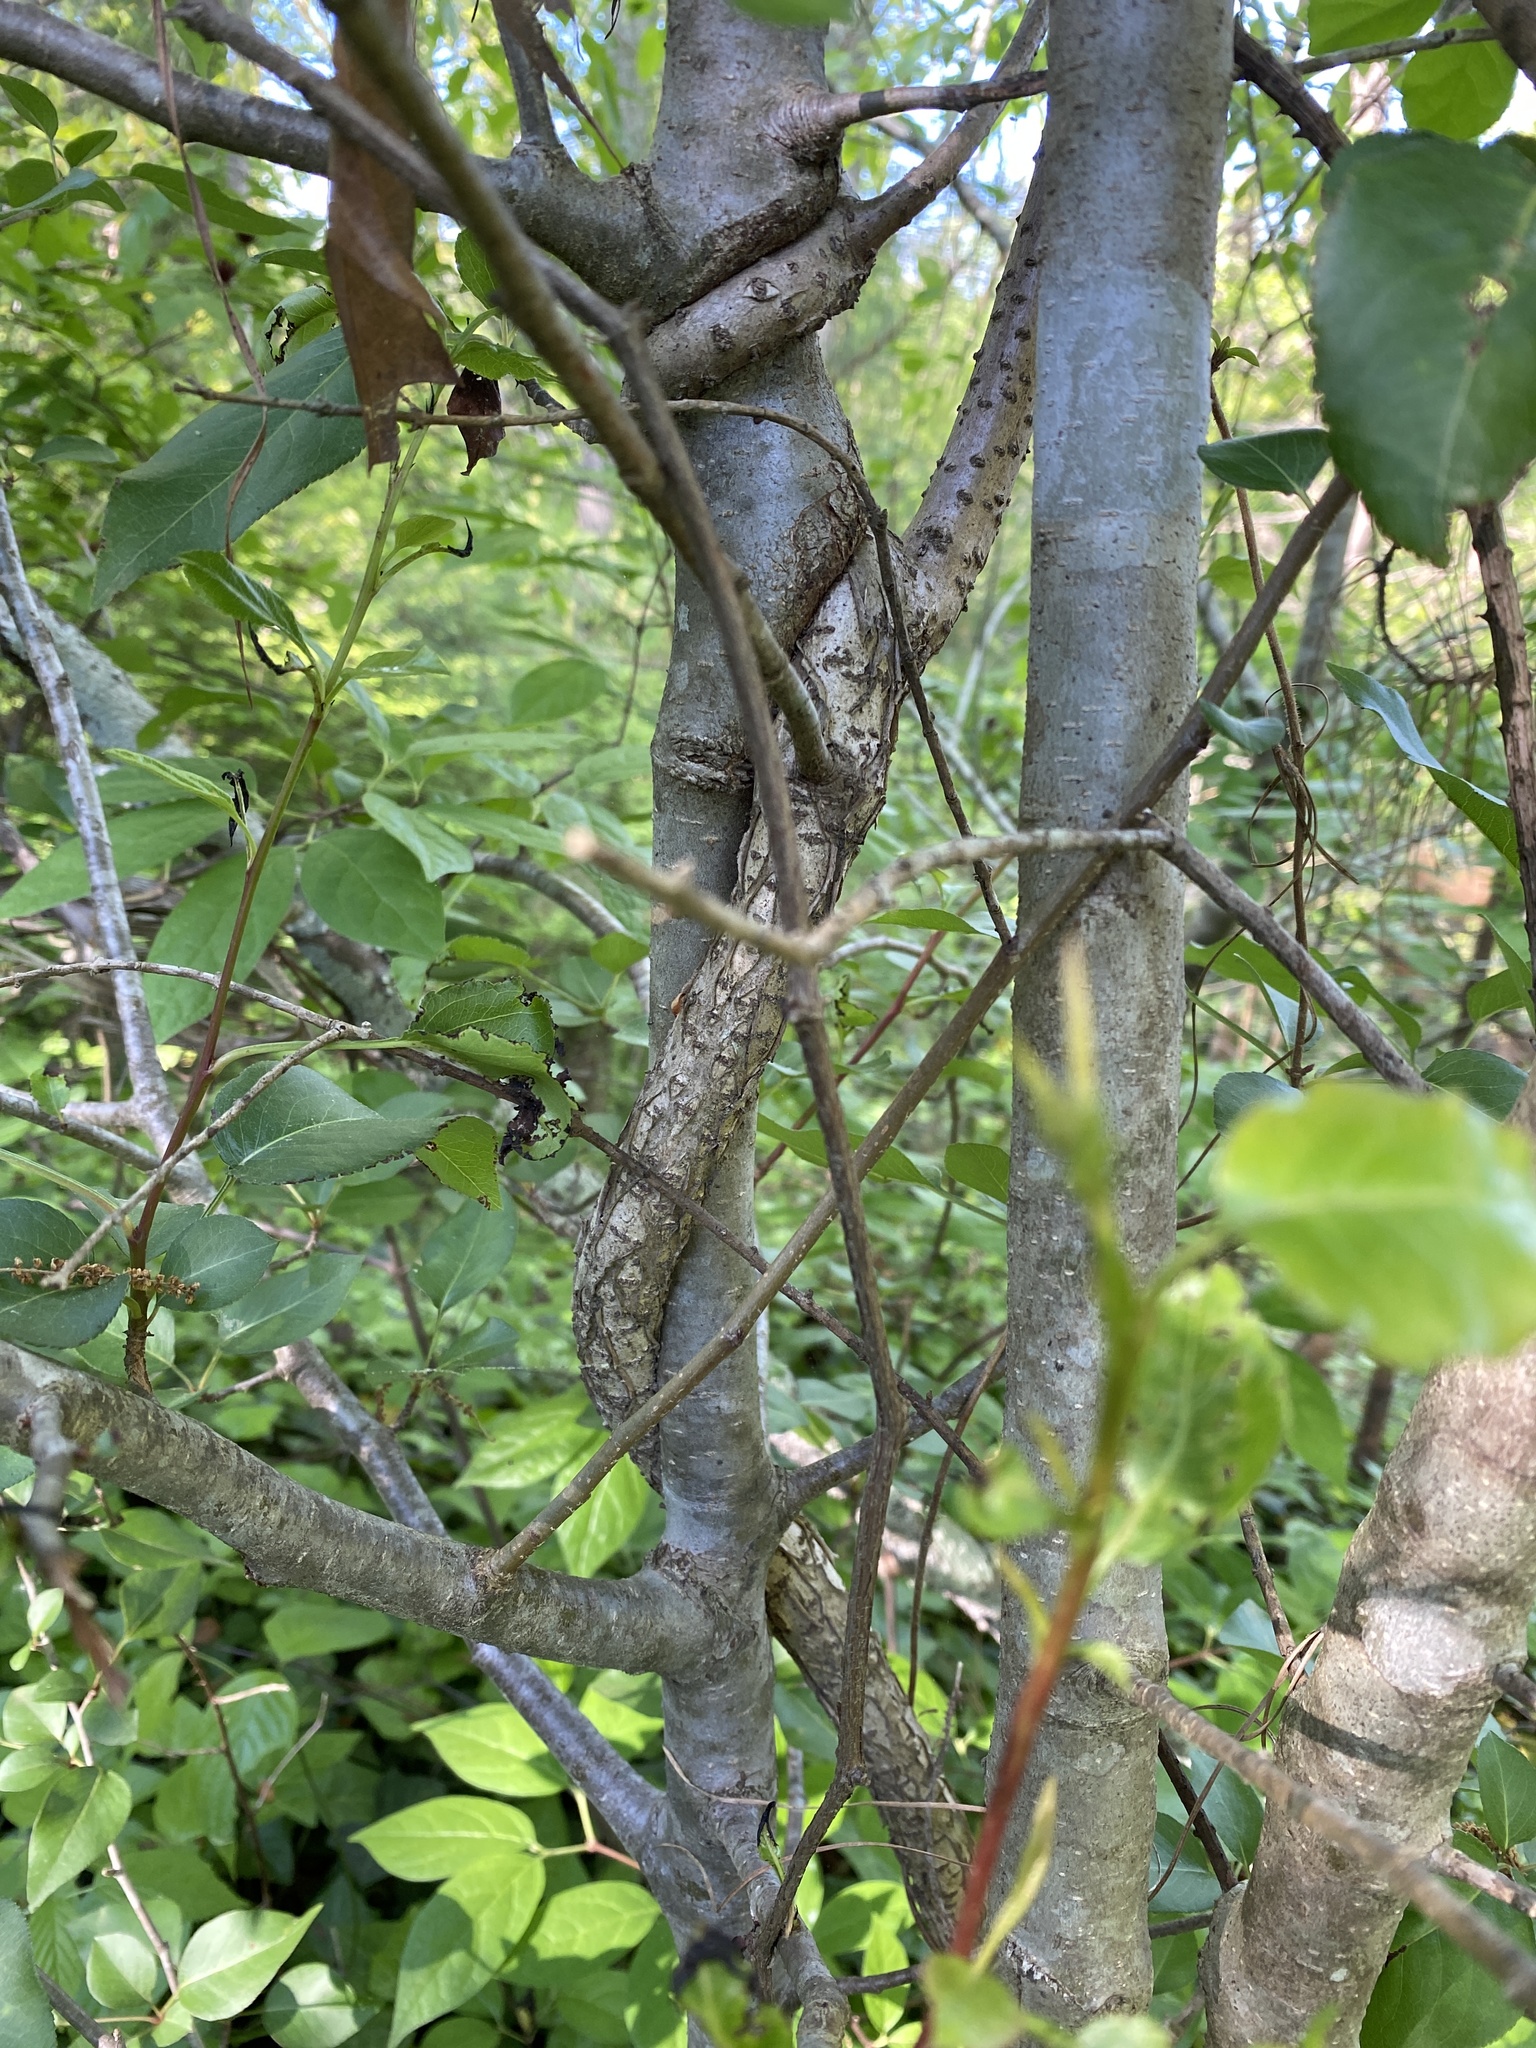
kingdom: Plantae
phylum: Tracheophyta
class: Magnoliopsida
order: Celastrales
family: Celastraceae
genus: Celastrus
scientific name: Celastrus orbiculatus
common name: Oriental bittersweet
